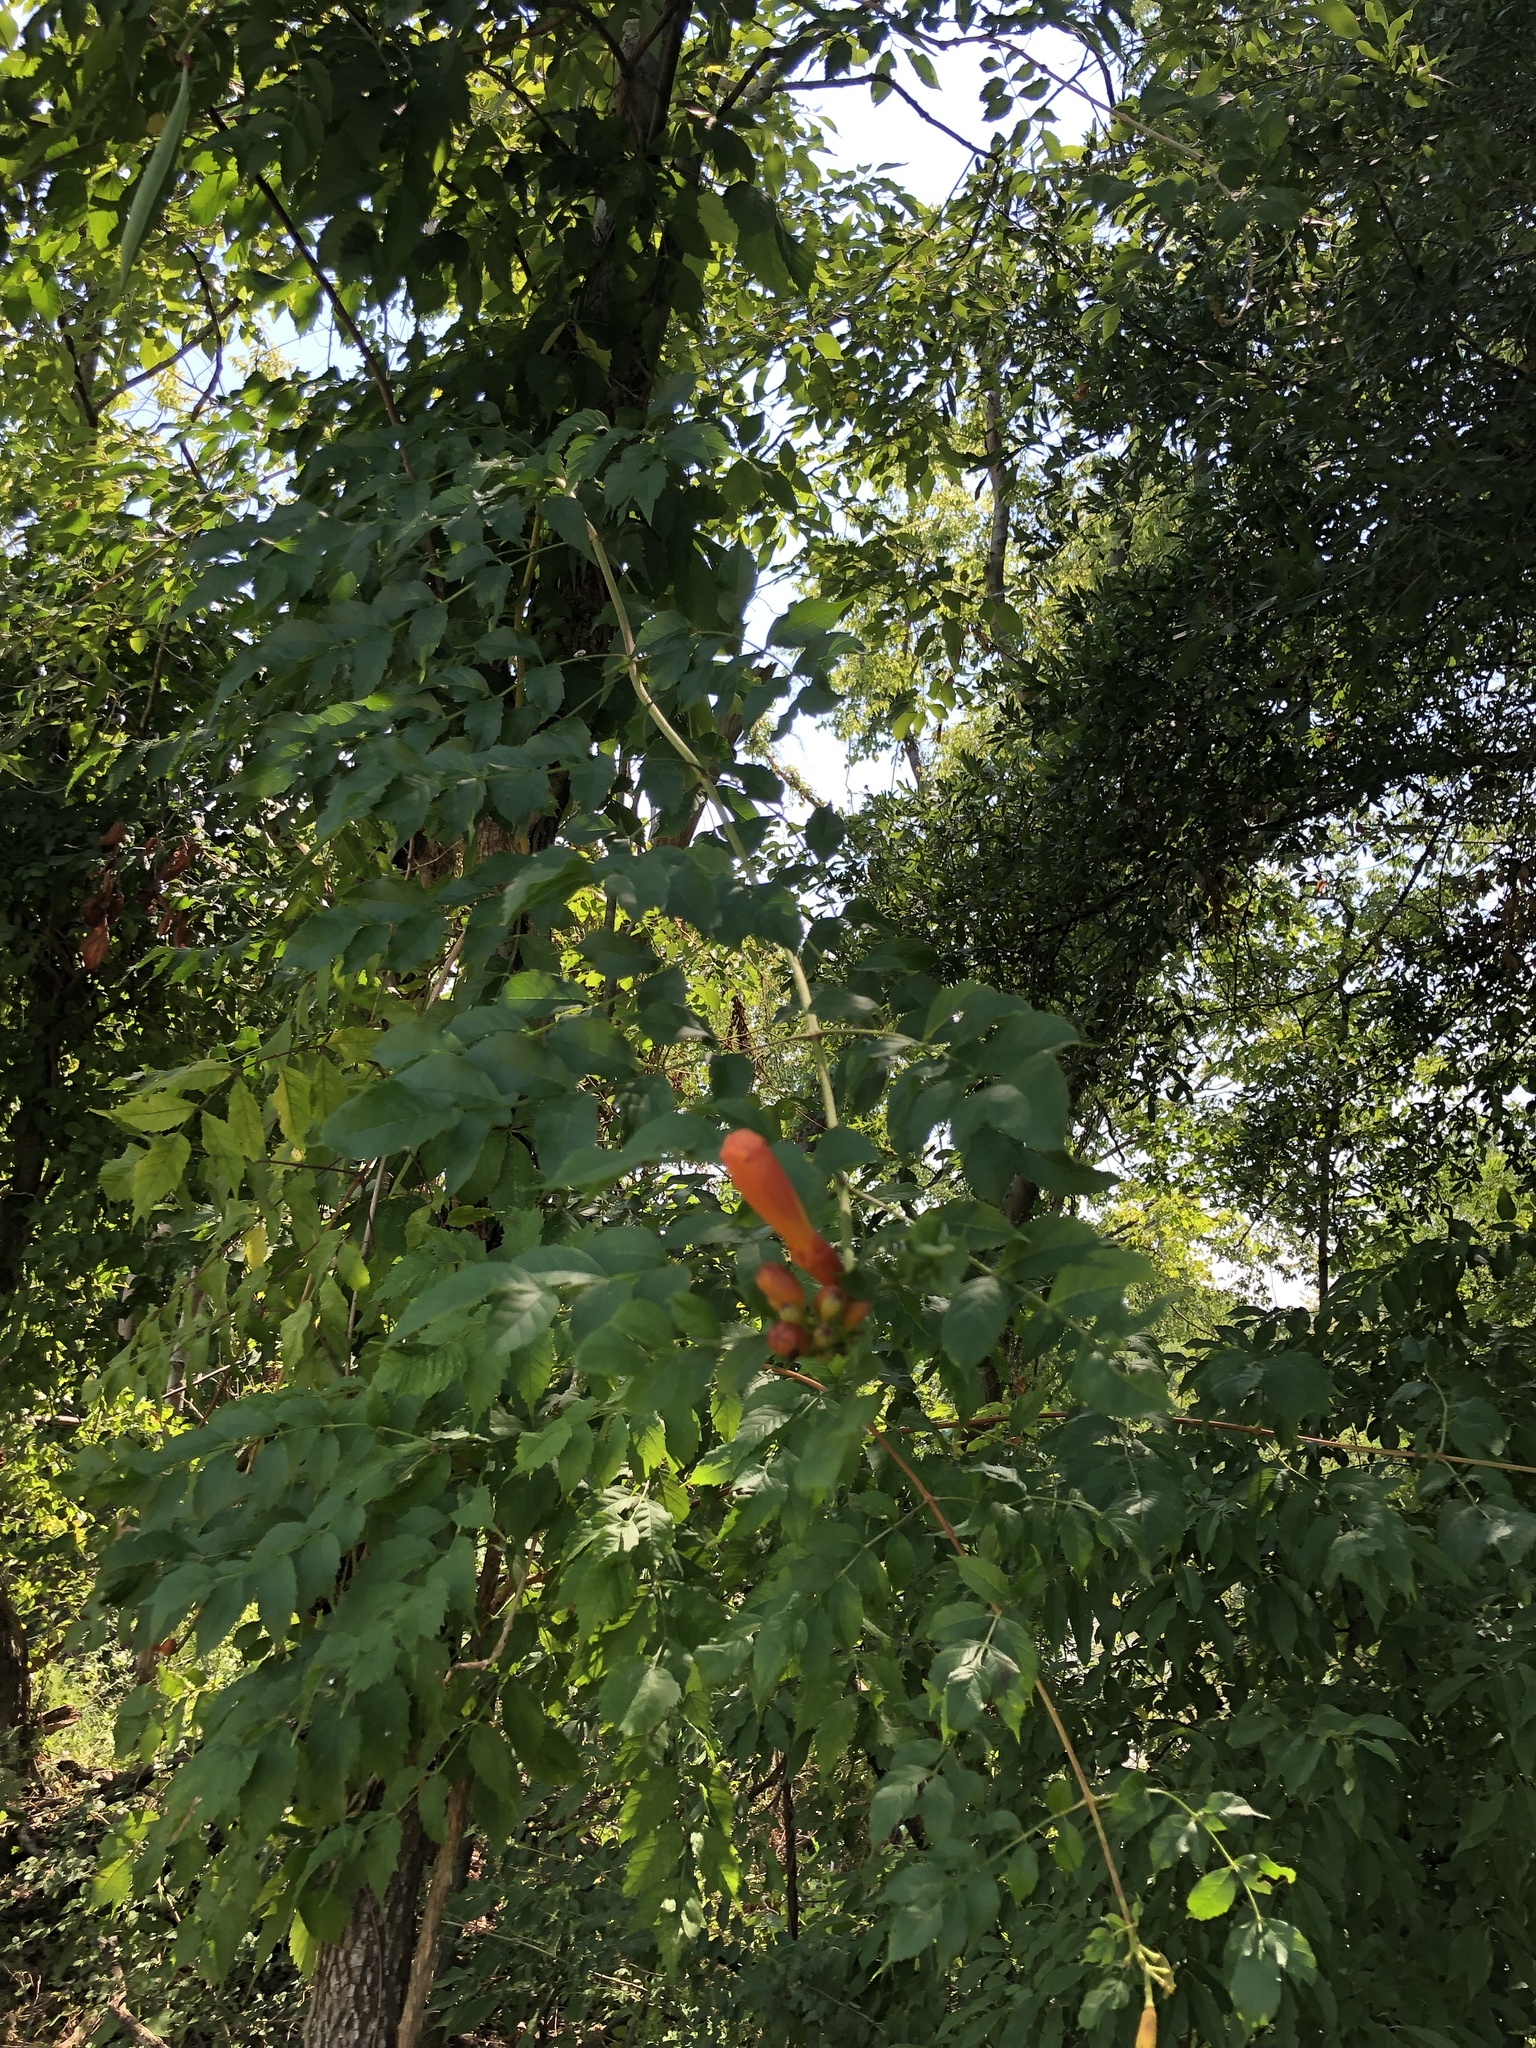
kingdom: Plantae
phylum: Tracheophyta
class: Magnoliopsida
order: Lamiales
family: Bignoniaceae
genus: Campsis
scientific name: Campsis radicans
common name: Trumpet-creeper
